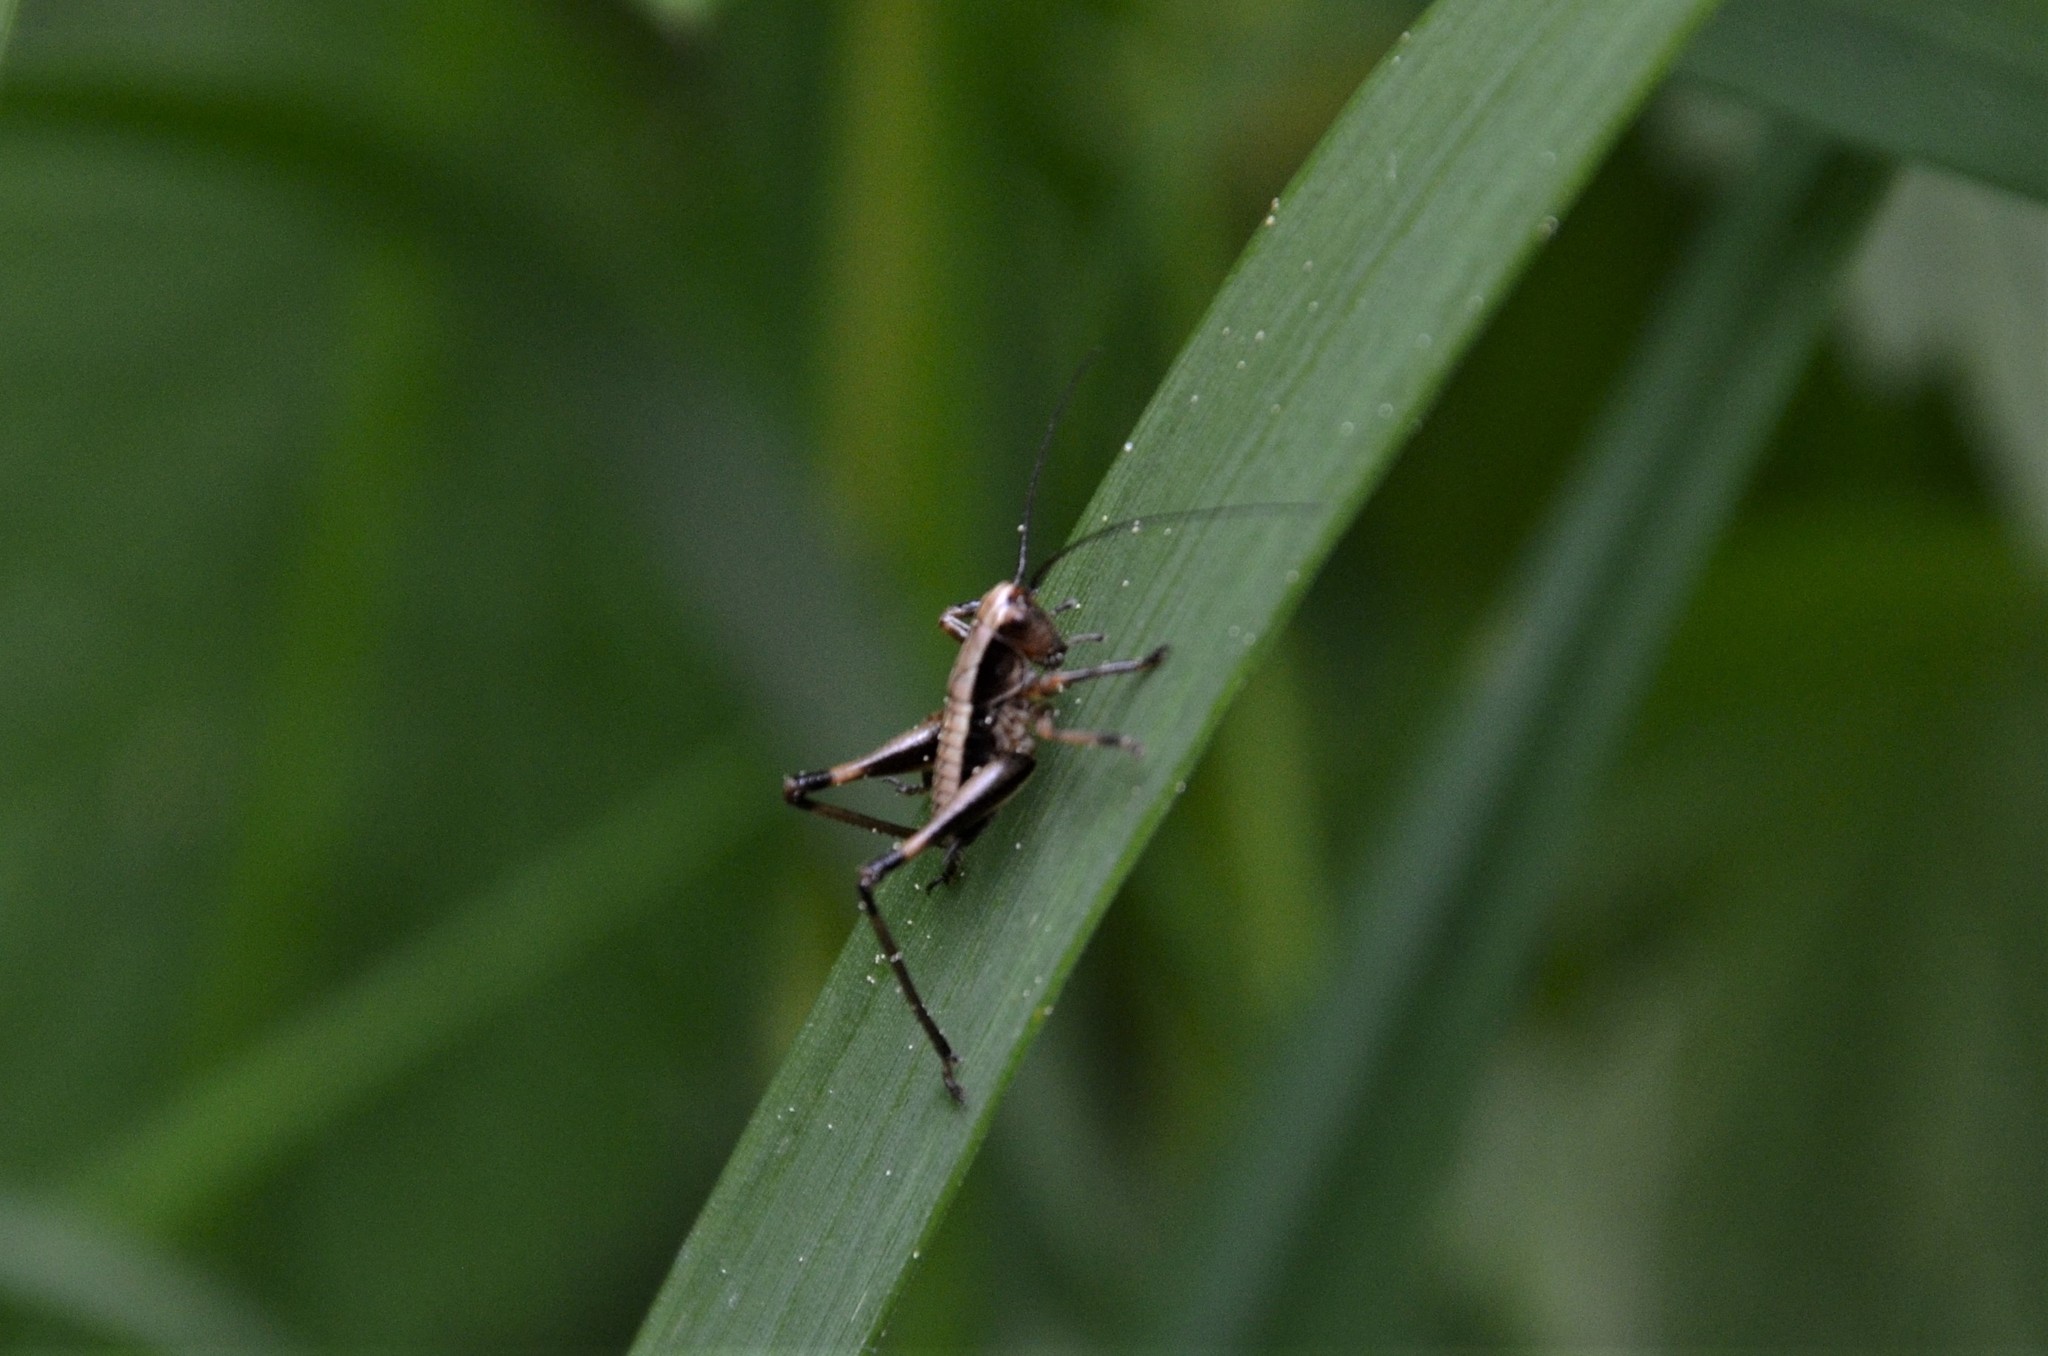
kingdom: Animalia
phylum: Arthropoda
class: Insecta
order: Orthoptera
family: Tettigoniidae
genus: Pholidoptera
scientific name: Pholidoptera griseoaptera
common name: Dark bush-cricket
